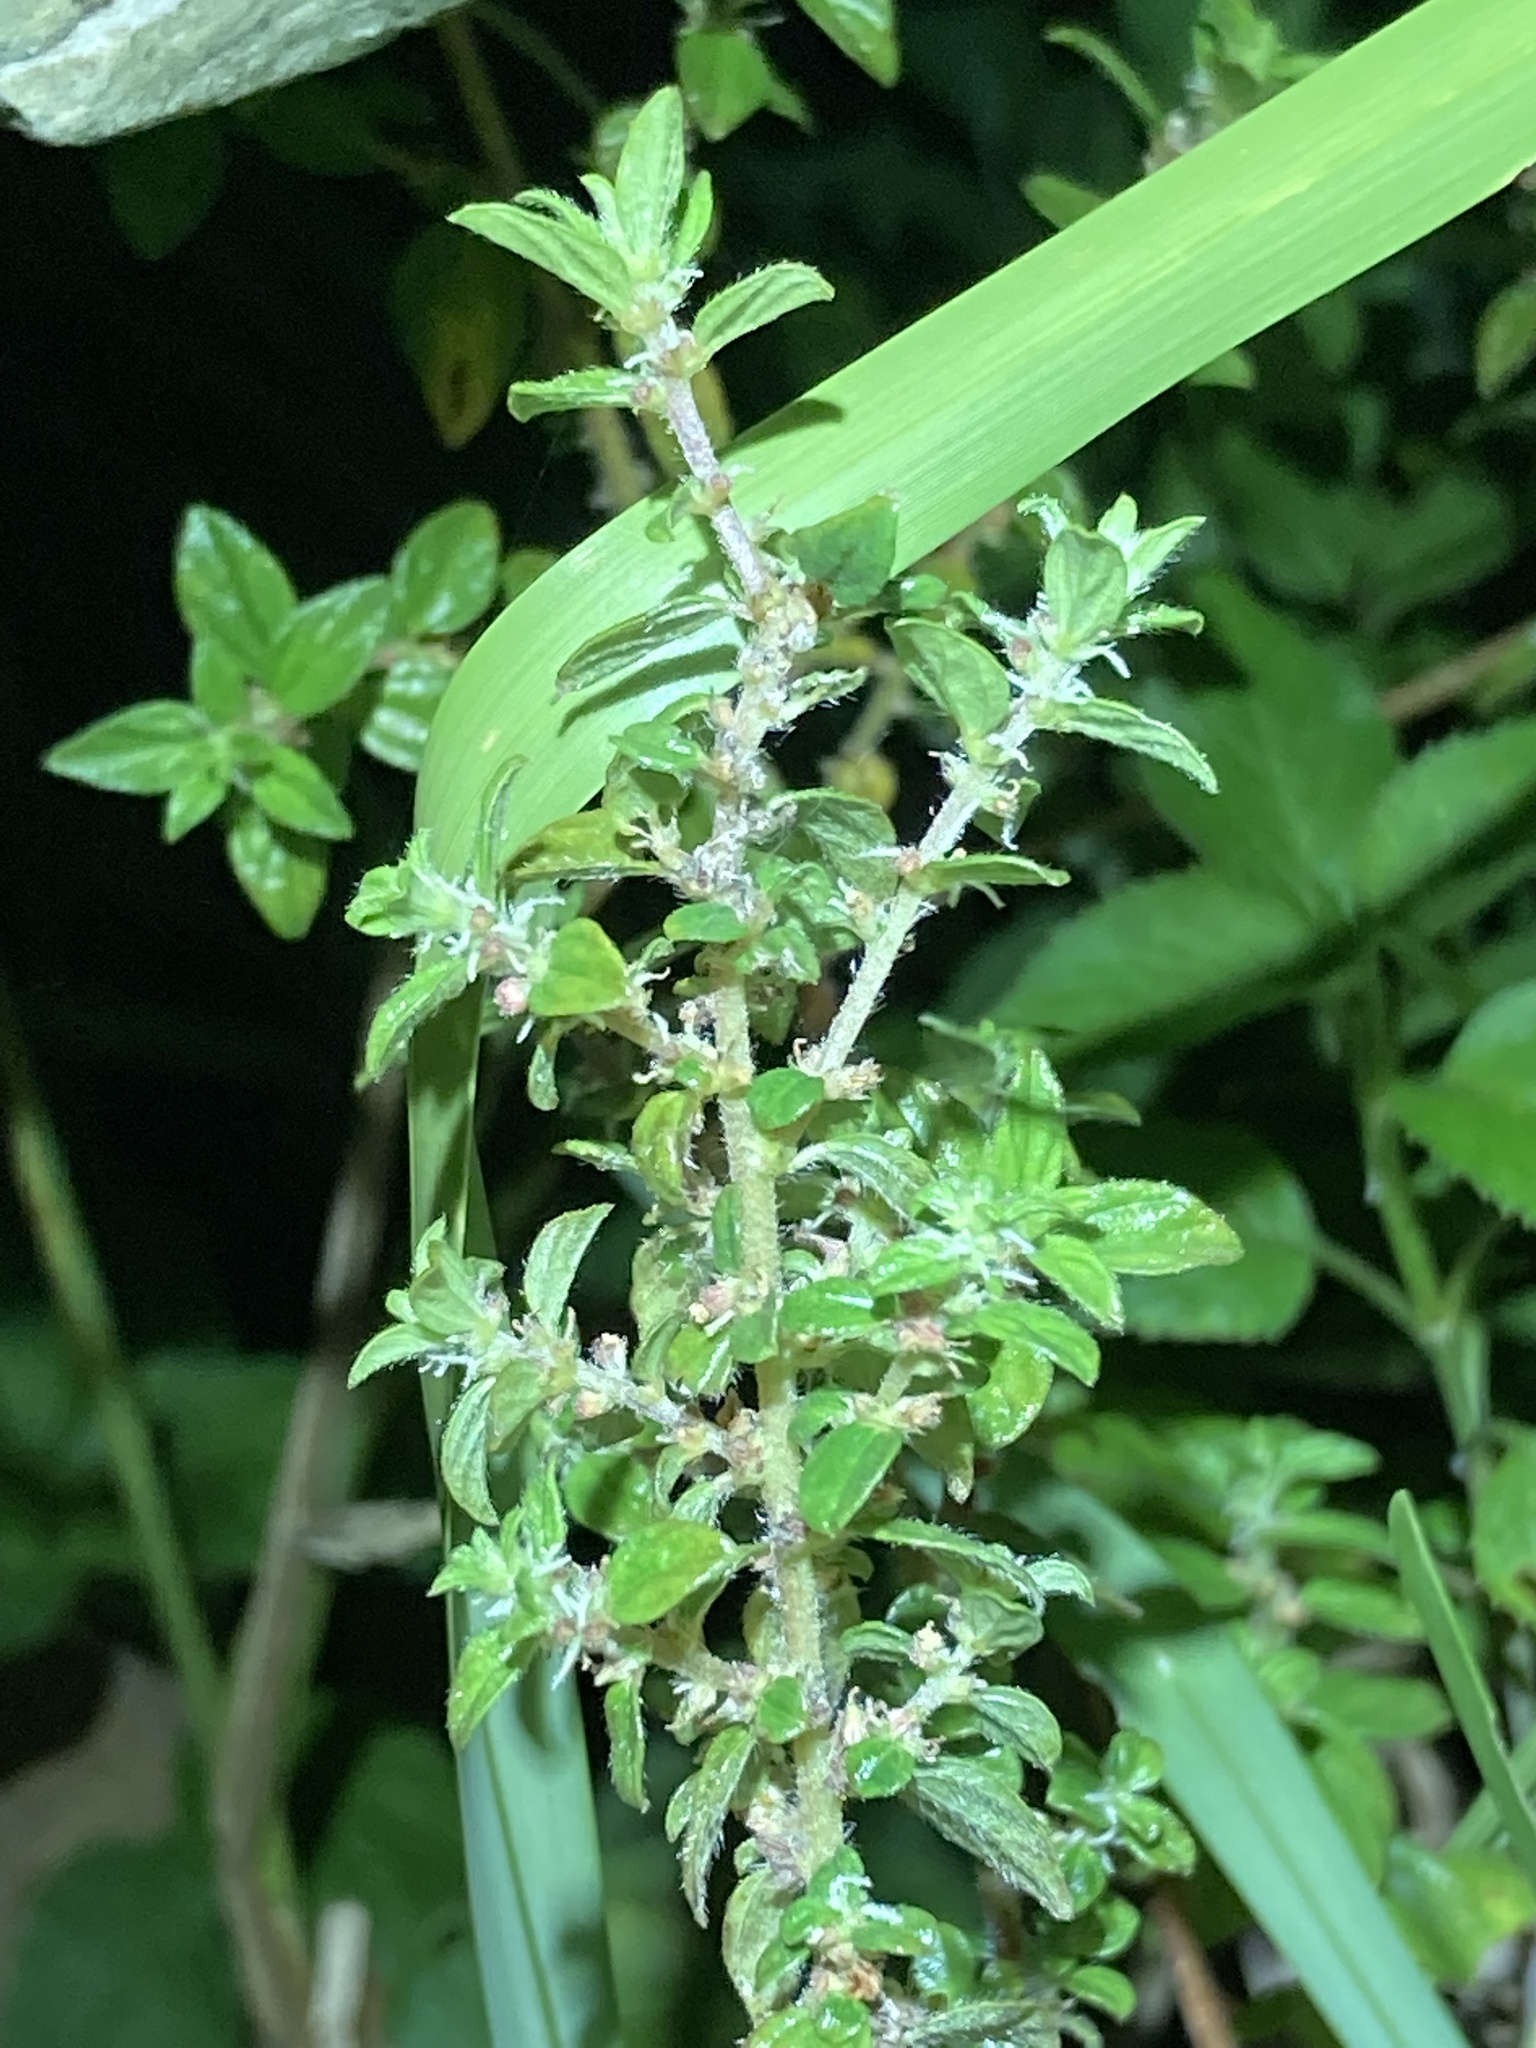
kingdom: Plantae
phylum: Tracheophyta
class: Magnoliopsida
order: Rosales
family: Urticaceae
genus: Pouzolzia
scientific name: Pouzolzia zeylanica
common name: Graceful pouzolzsbush
